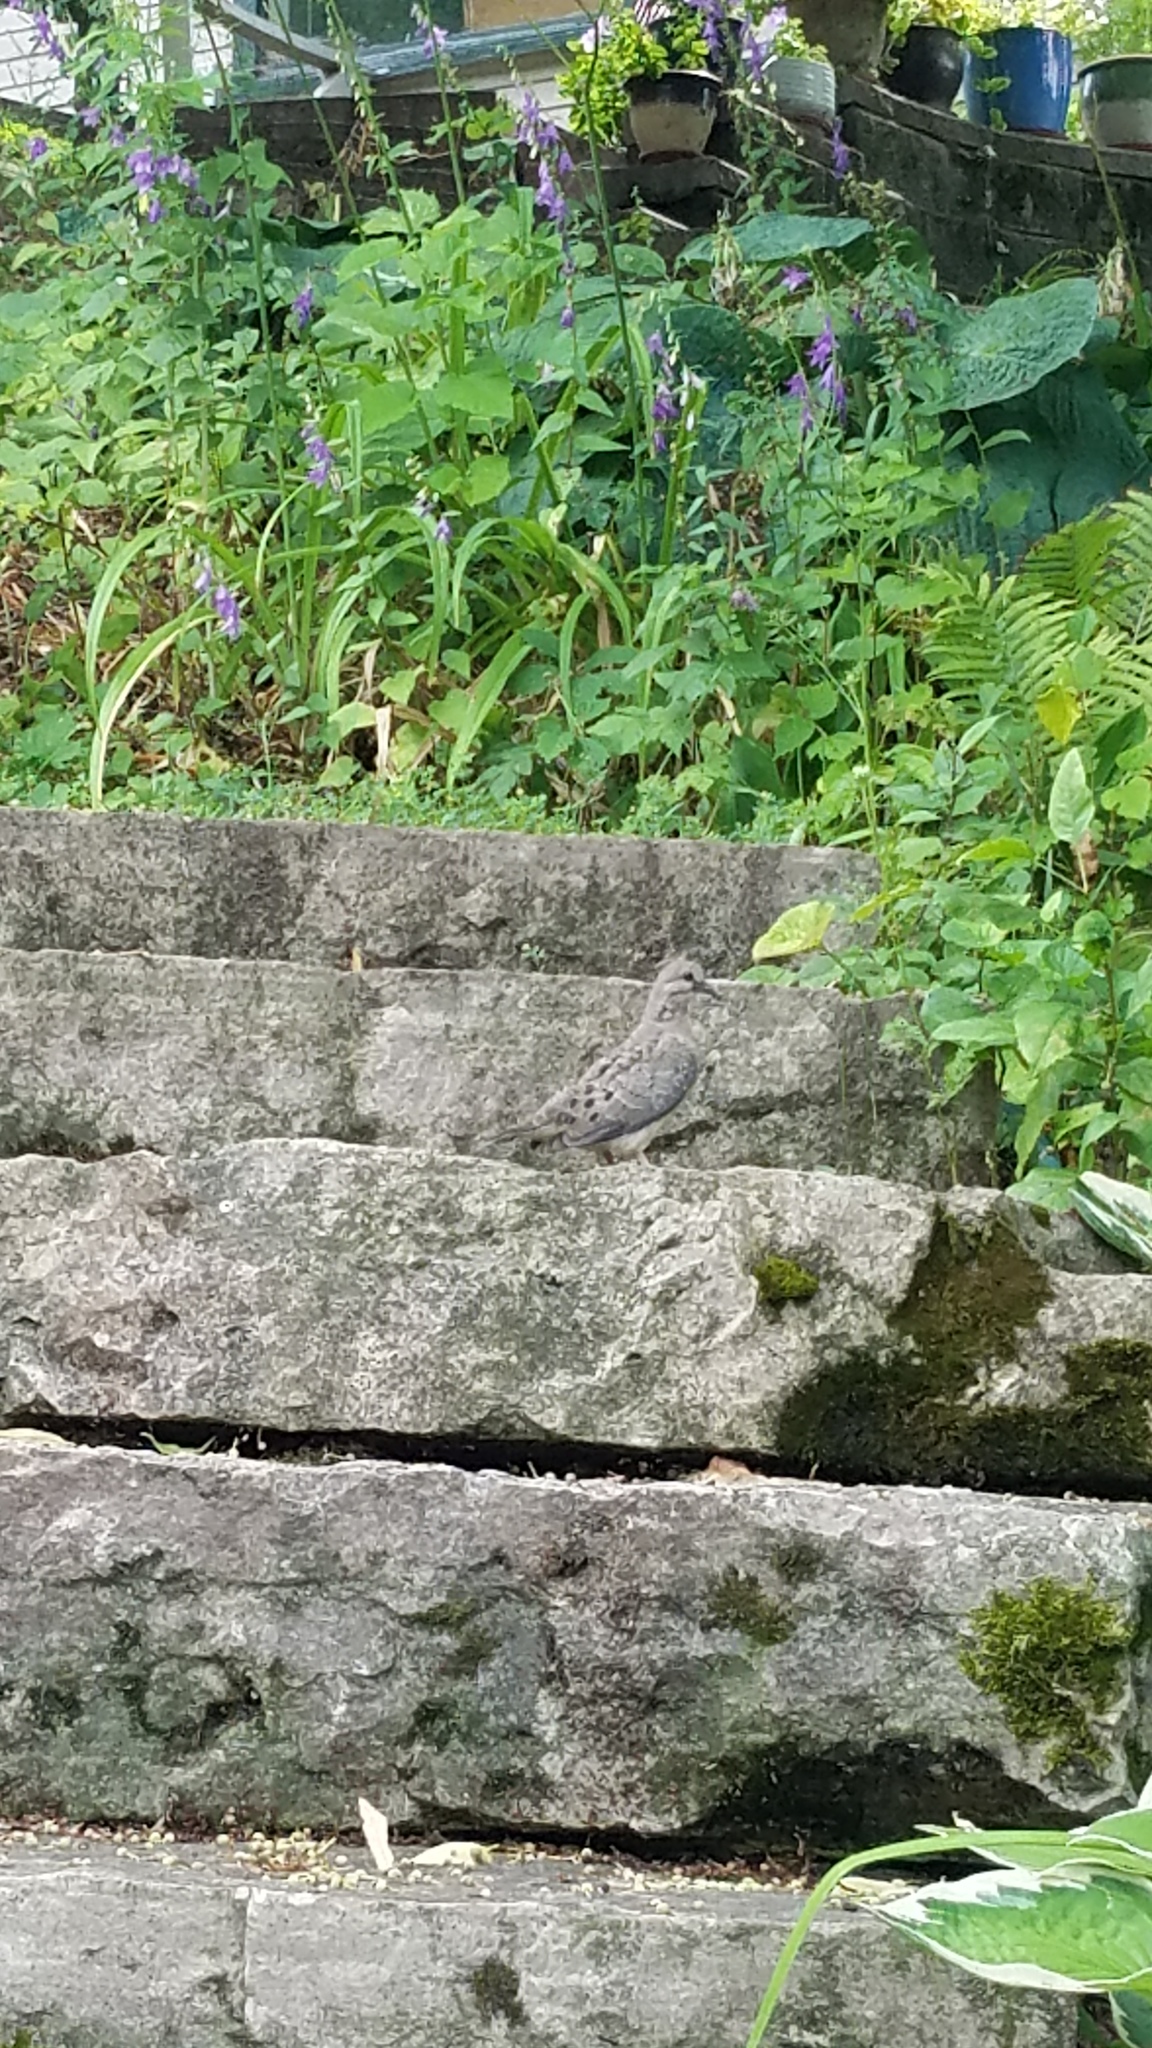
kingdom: Animalia
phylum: Chordata
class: Aves
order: Columbiformes
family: Columbidae
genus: Zenaida
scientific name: Zenaida macroura
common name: Mourning dove
